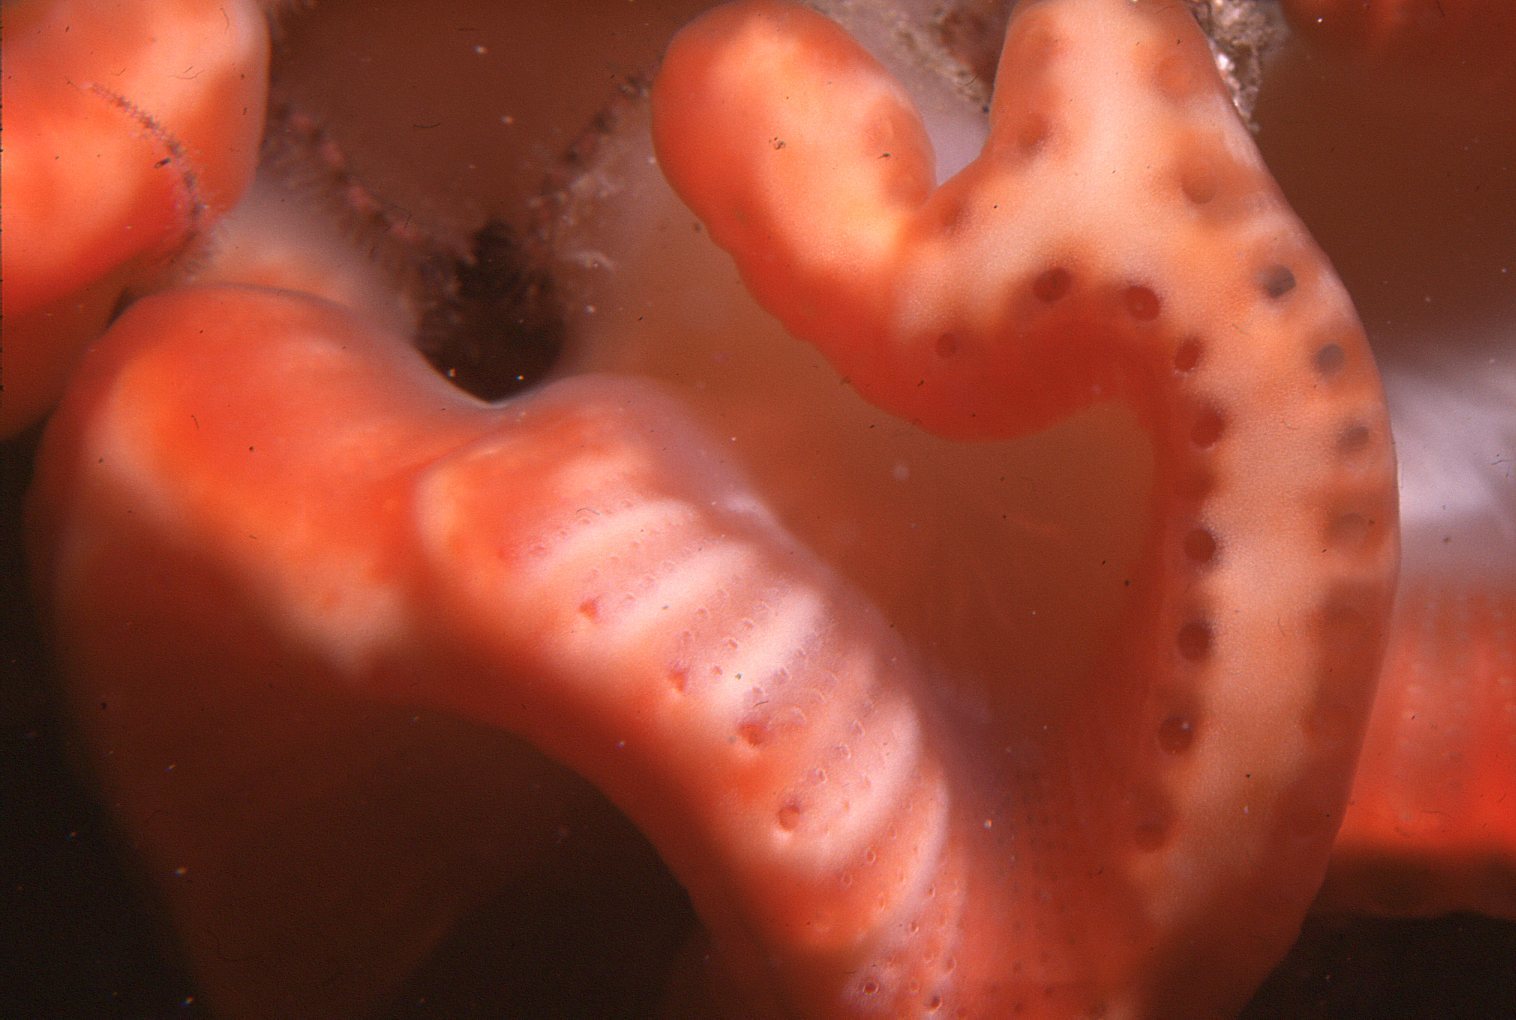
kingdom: Animalia
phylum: Chordata
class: Ascidiacea
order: Aplousobranchia
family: Holozoidae
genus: Sycozoa
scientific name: Sycozoa cerebriformis
